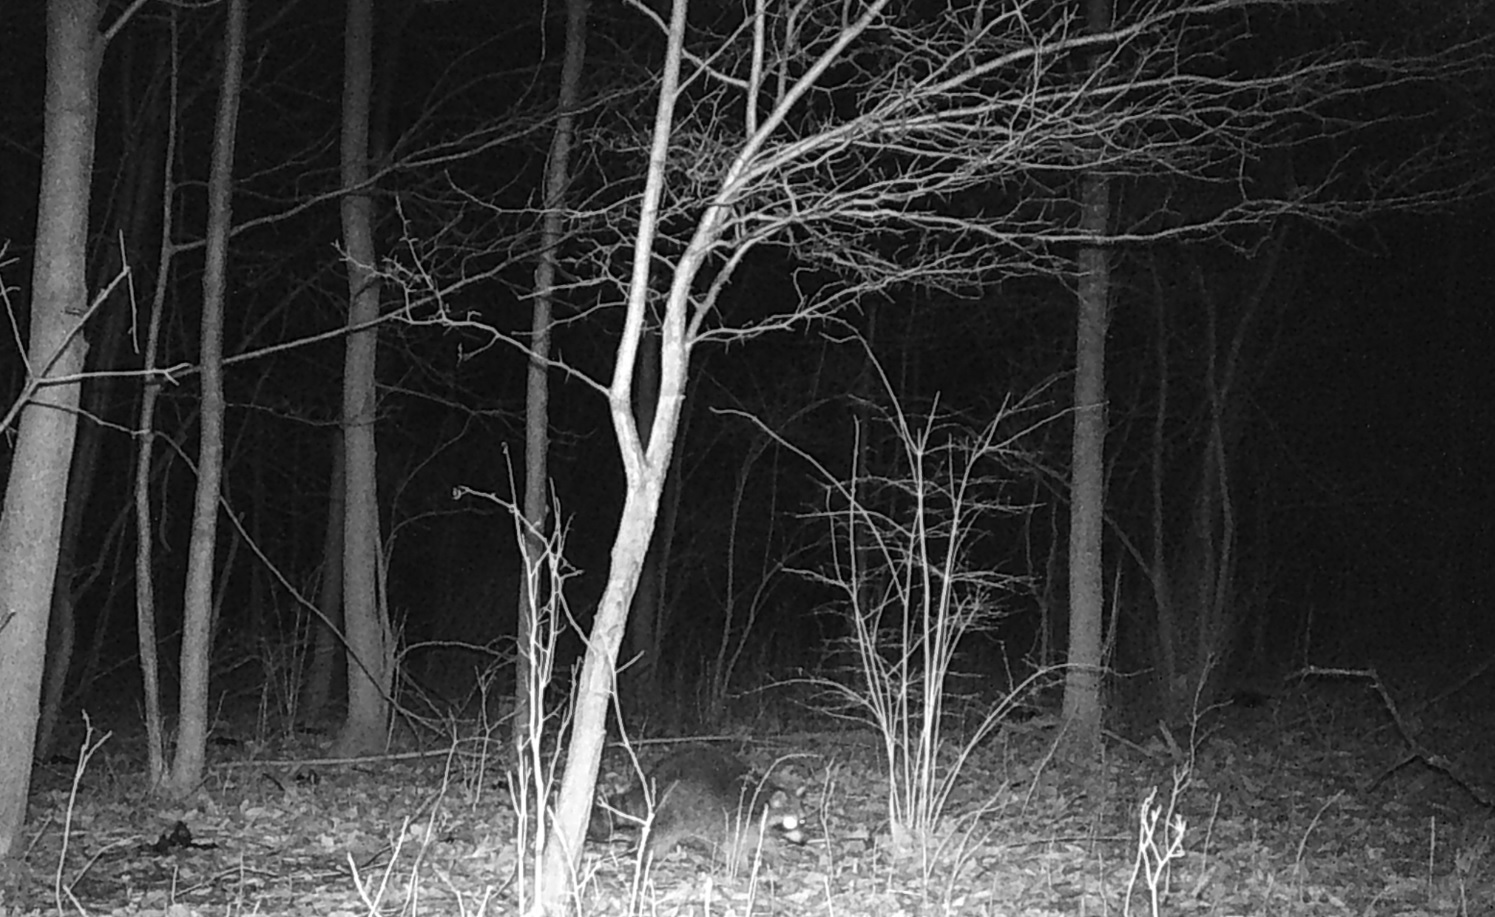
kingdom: Animalia
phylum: Chordata
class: Mammalia
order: Carnivora
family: Procyonidae
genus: Procyon
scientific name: Procyon lotor
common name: Raccoon
